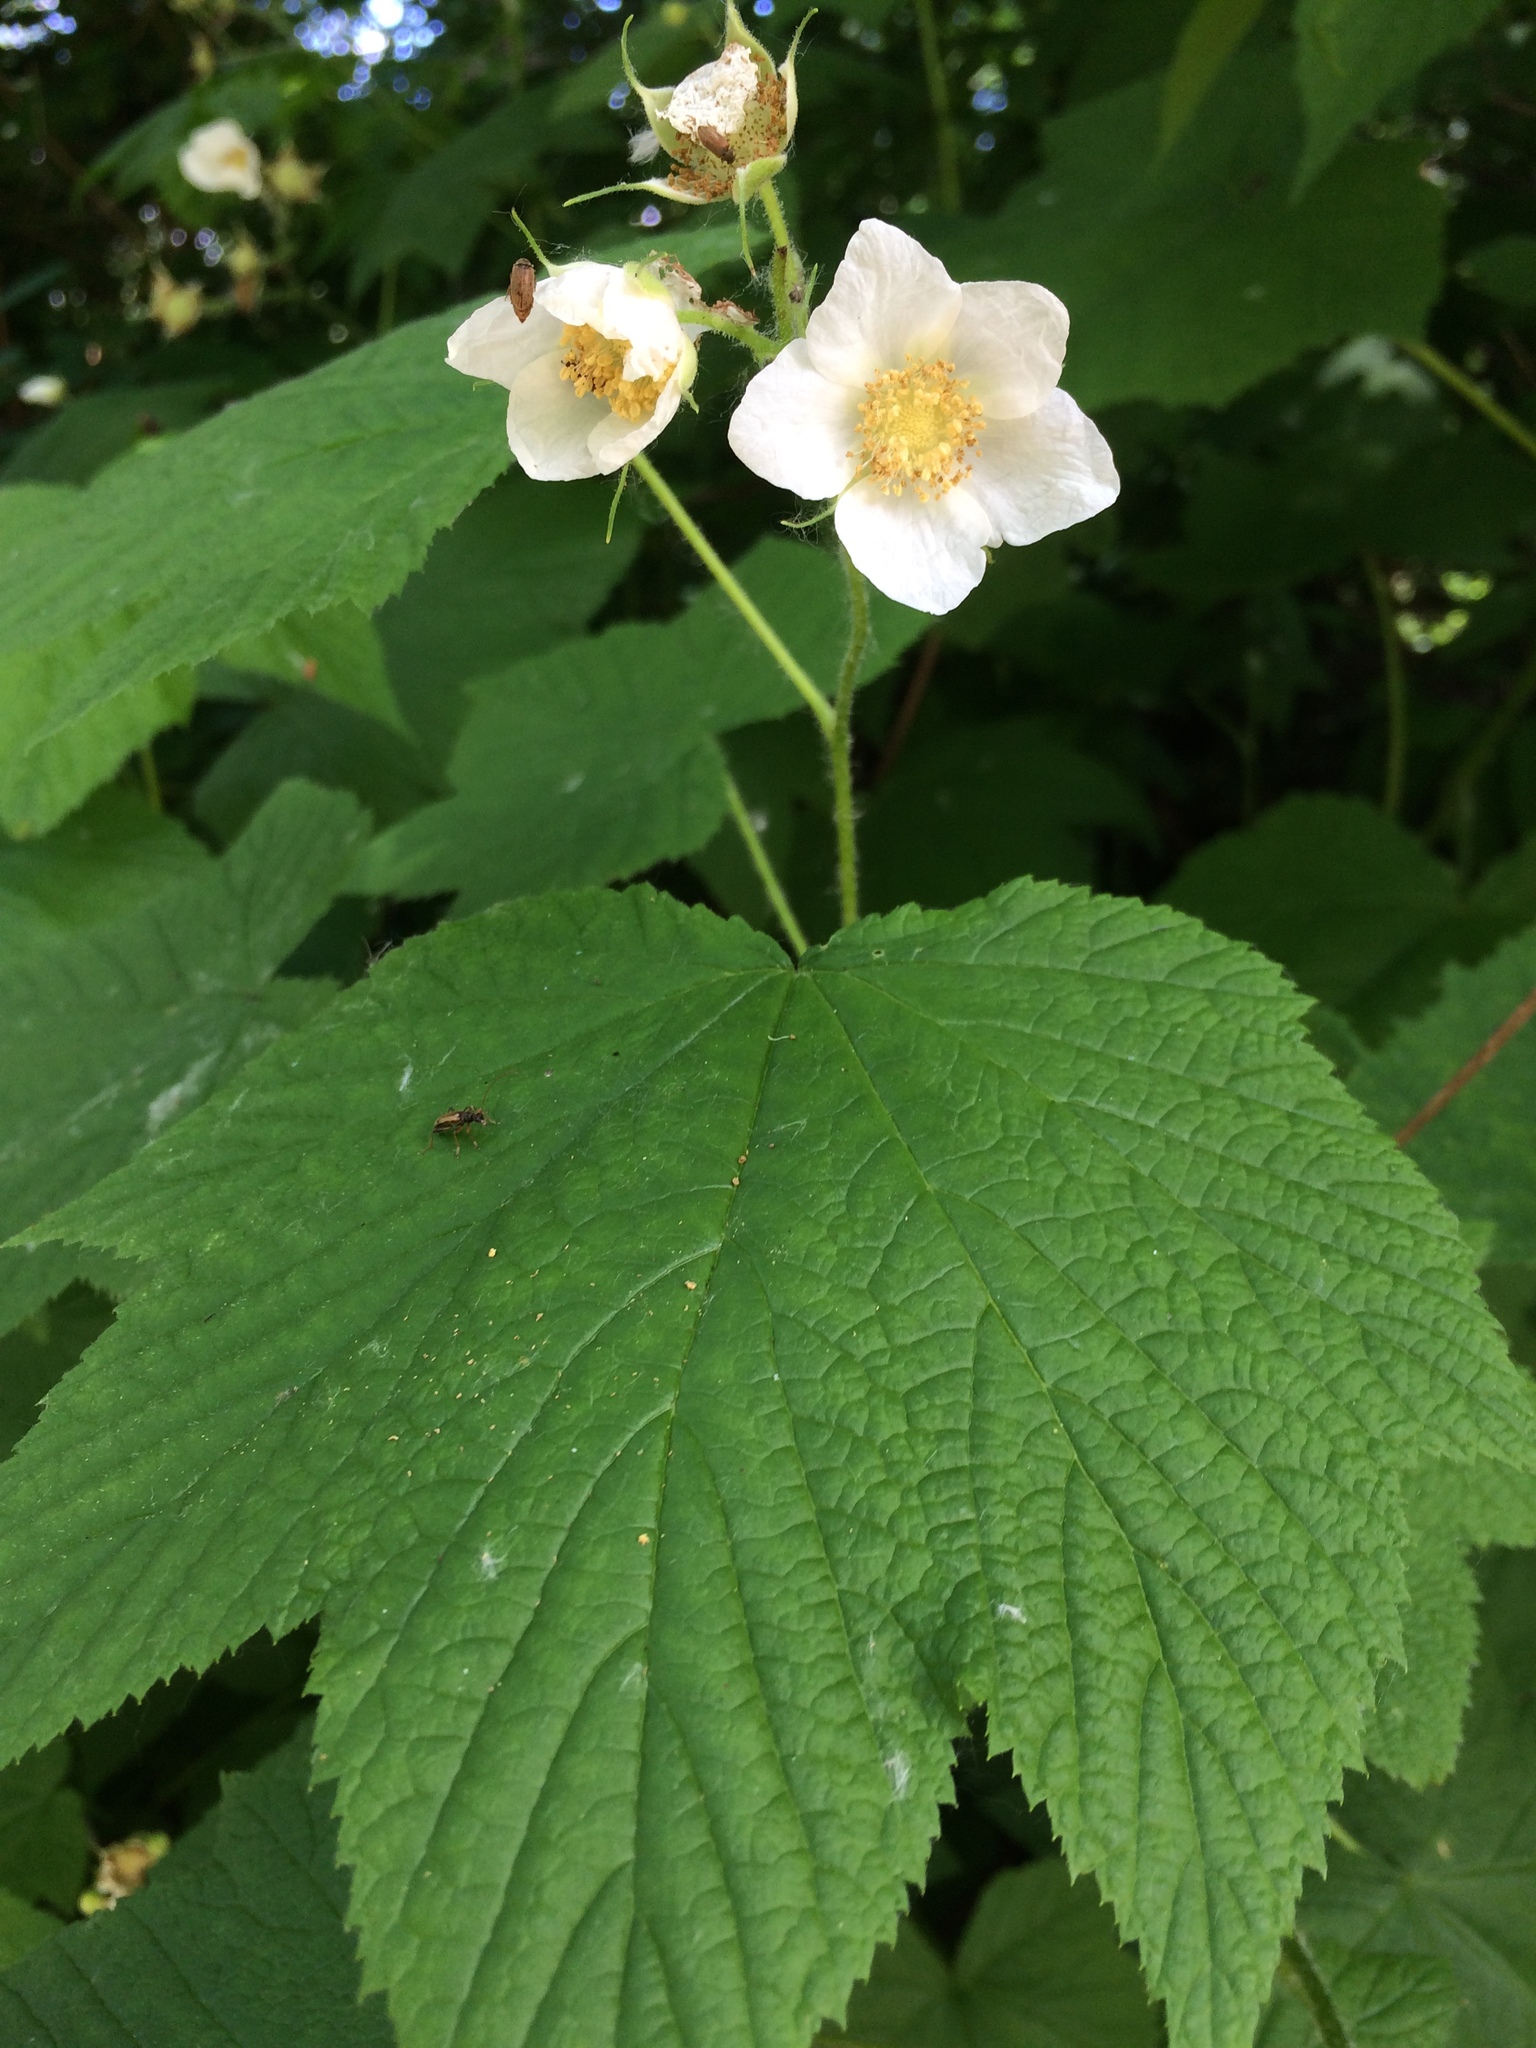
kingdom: Plantae
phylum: Tracheophyta
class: Magnoliopsida
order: Rosales
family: Rosaceae
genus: Rubus
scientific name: Rubus parviflorus
